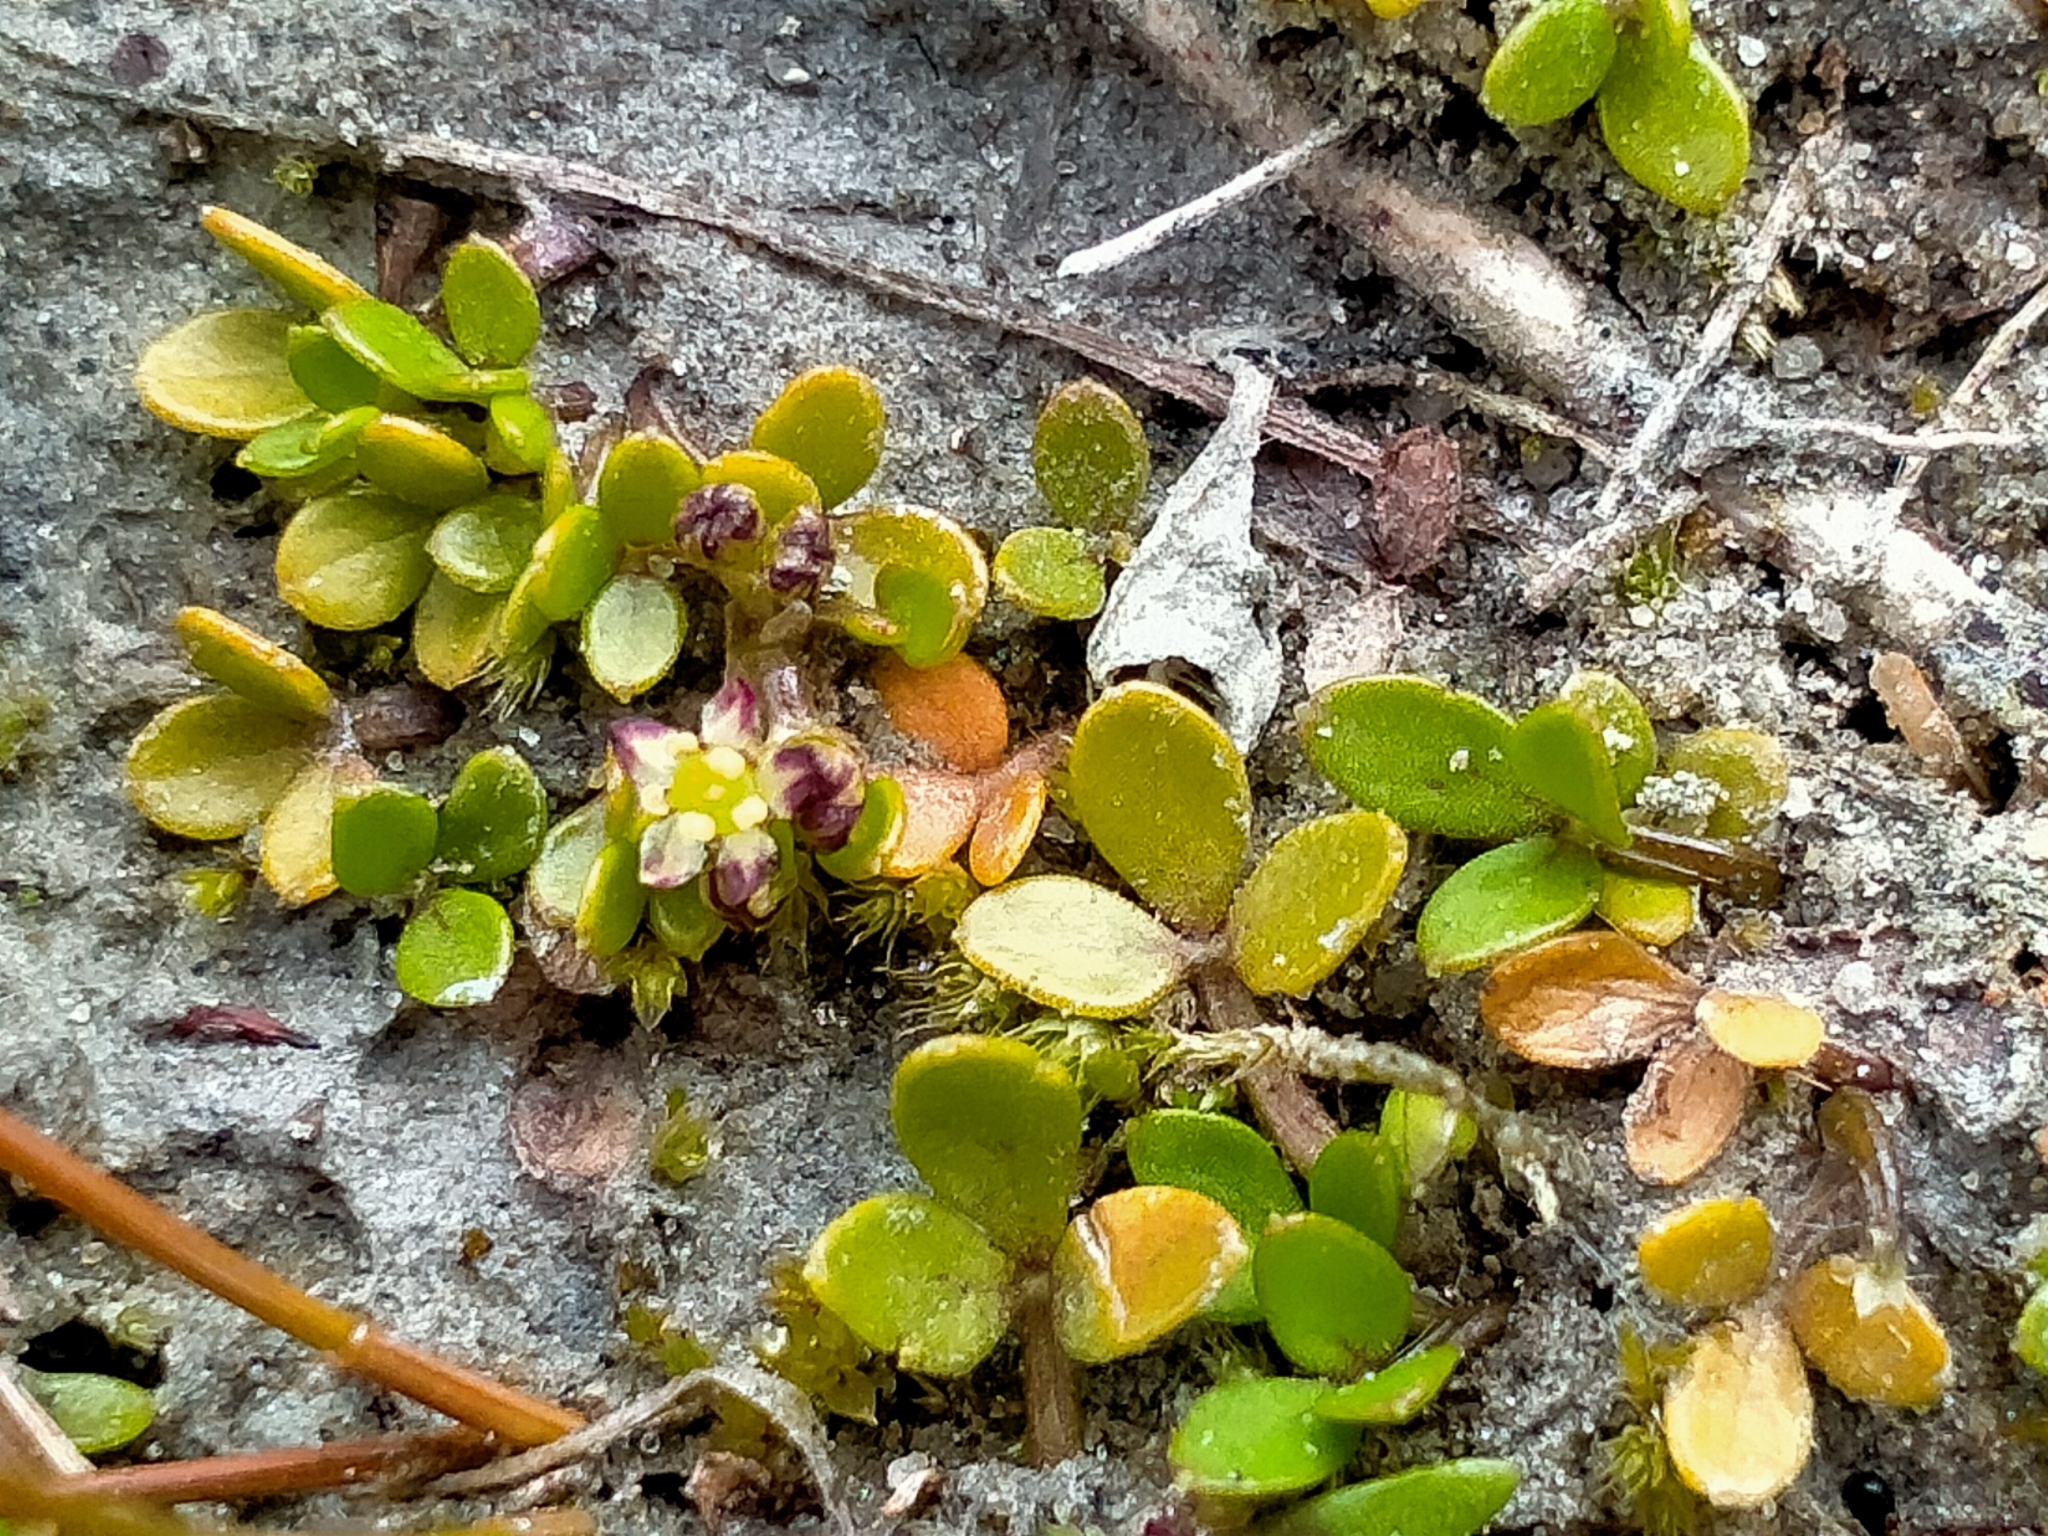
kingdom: Plantae
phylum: Tracheophyta
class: Magnoliopsida
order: Apiales
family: Apiaceae
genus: Azorella
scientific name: Azorella nitens
